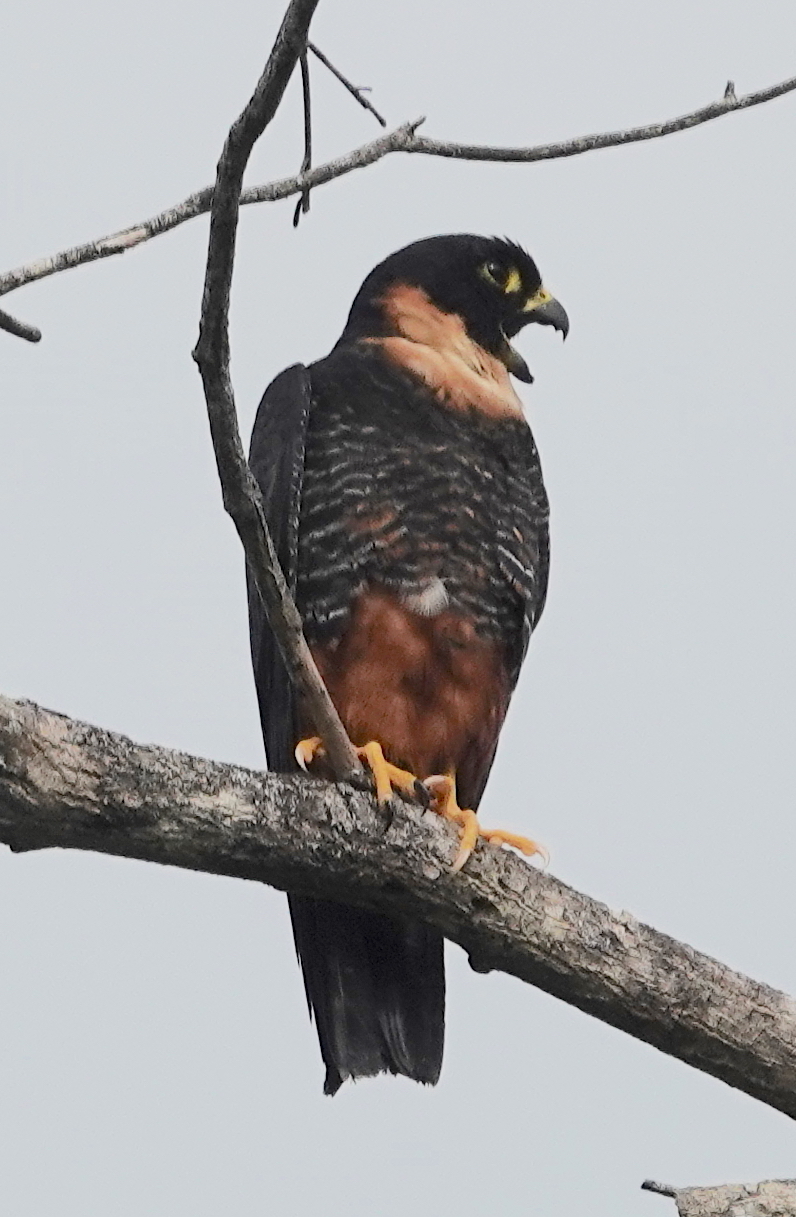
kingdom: Animalia
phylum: Chordata
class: Aves
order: Falconiformes
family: Falconidae
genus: Falco
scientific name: Falco rufigularis
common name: Bat falcon
